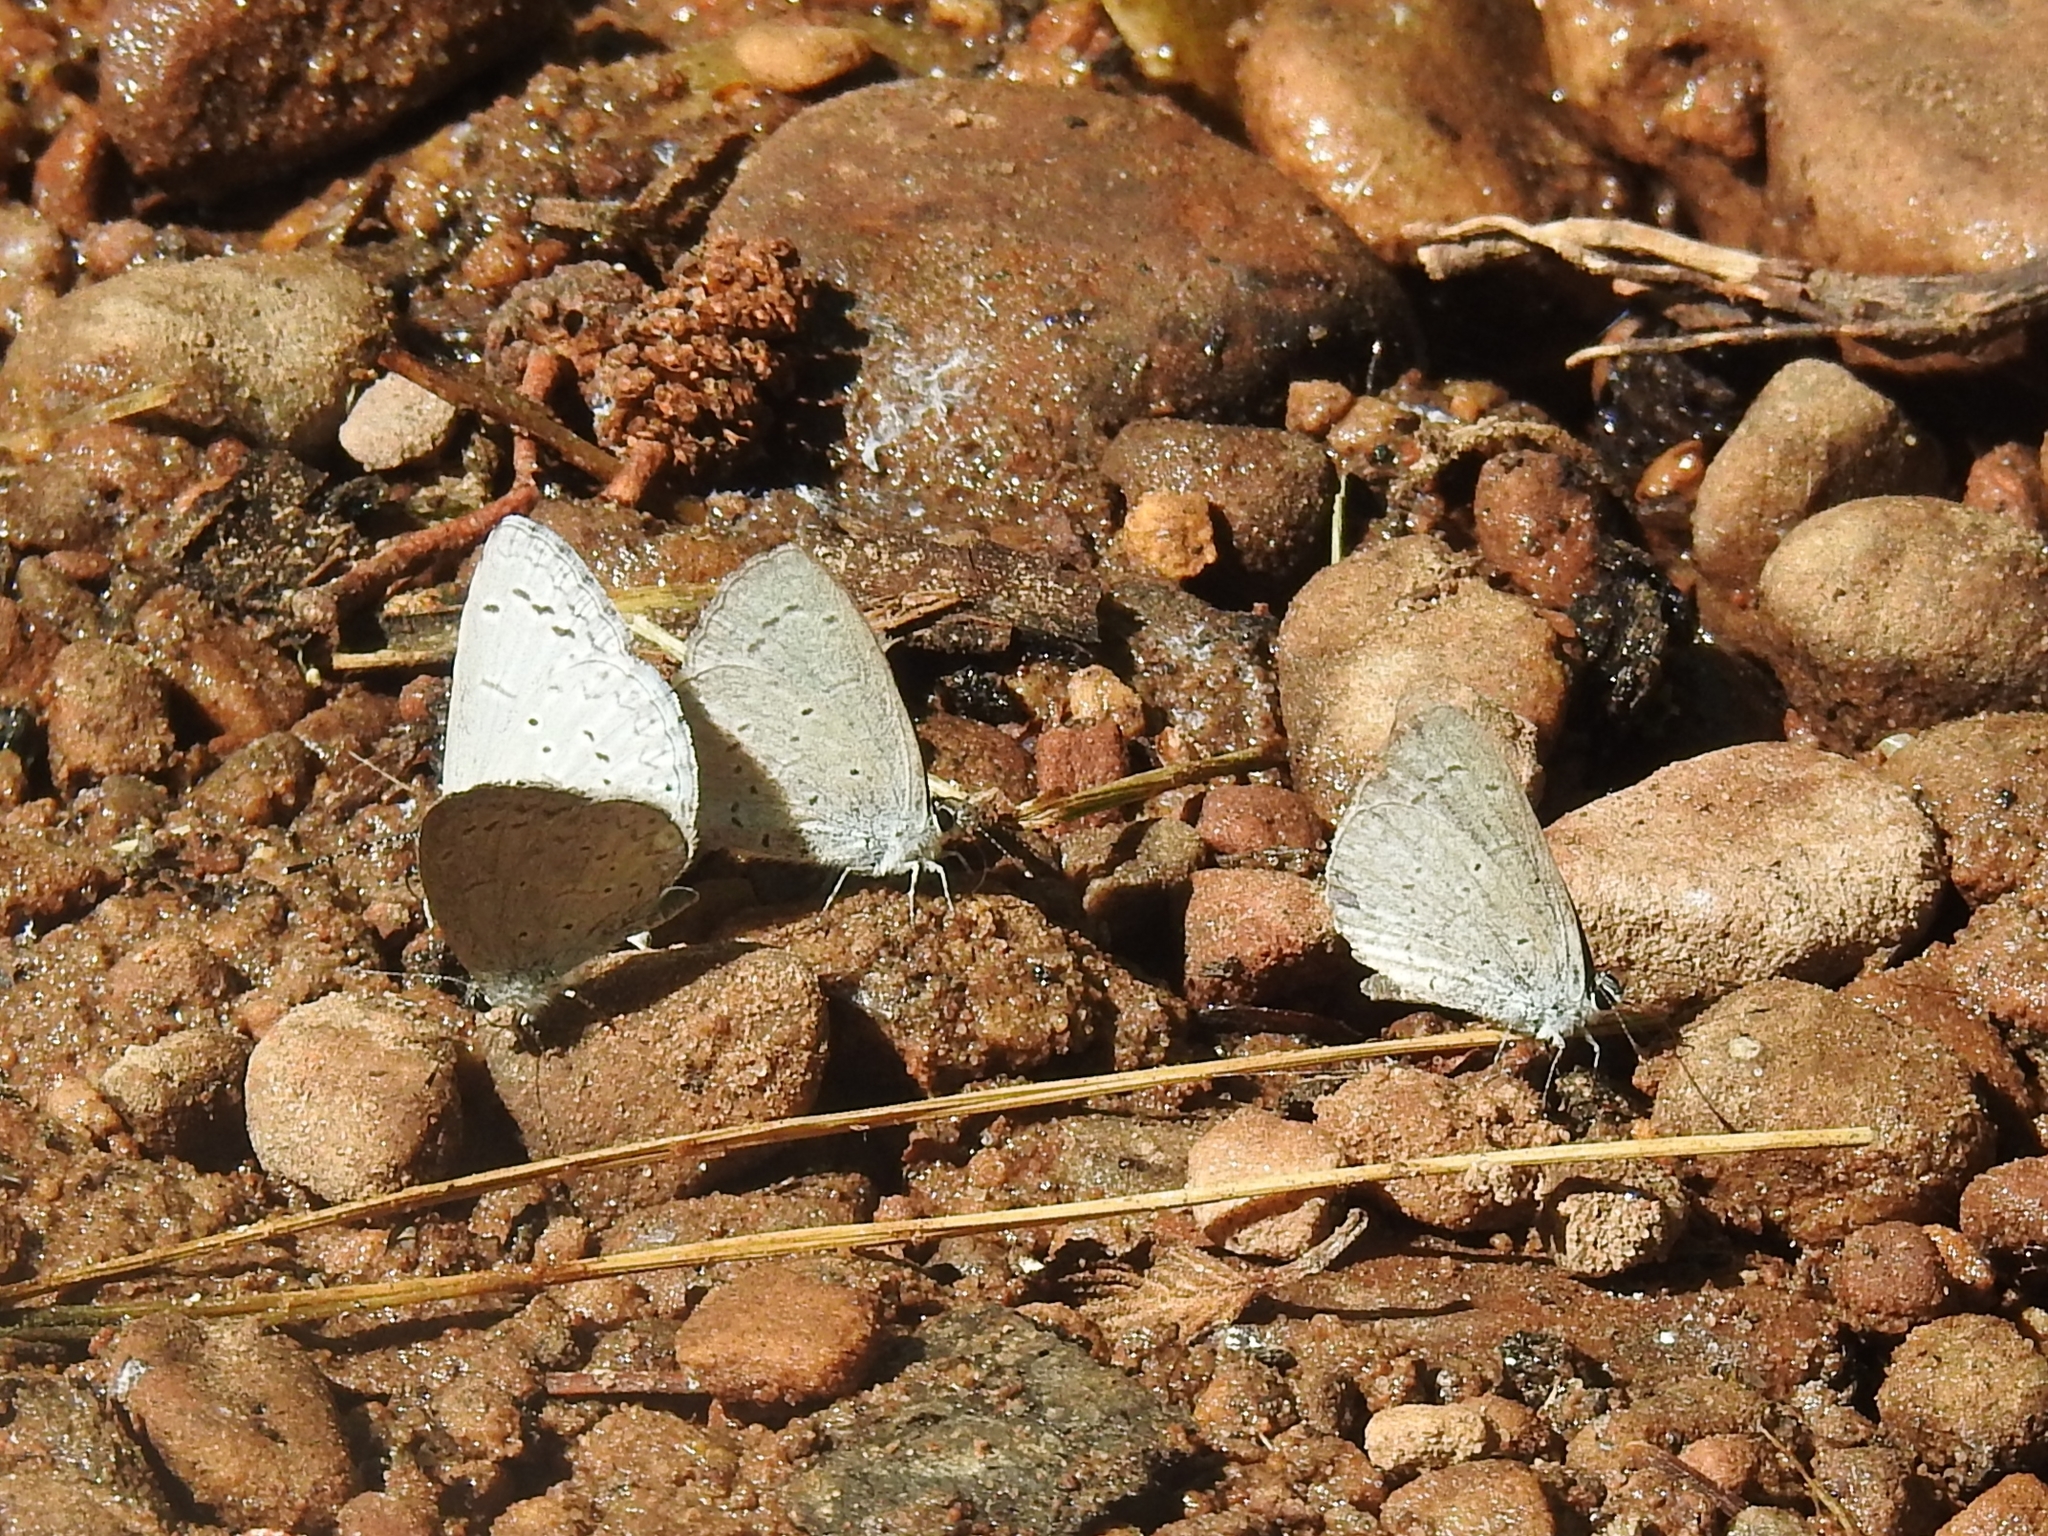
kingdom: Animalia
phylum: Arthropoda
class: Insecta
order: Lepidoptera
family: Lycaenidae
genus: Celastrina
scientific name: Celastrina ladon
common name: Spring azure
